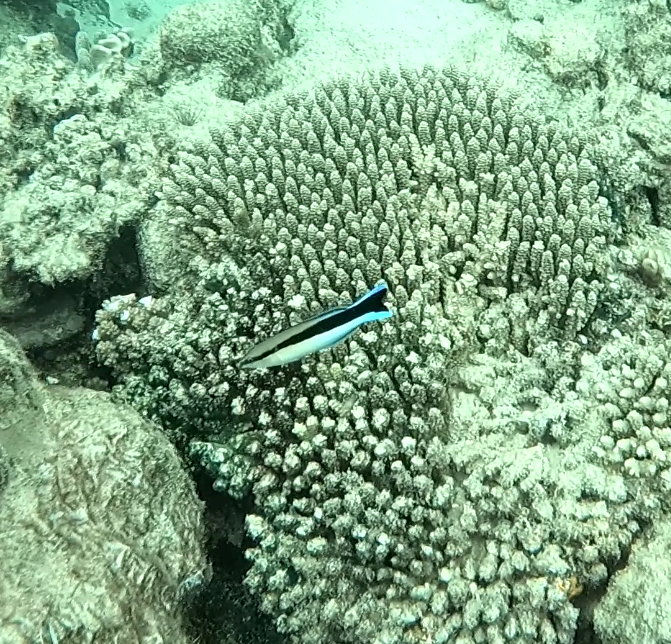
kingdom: Animalia
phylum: Chordata
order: Perciformes
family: Labridae
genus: Labroides
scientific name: Labroides dimidiatus
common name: Blue diesel wrasse
